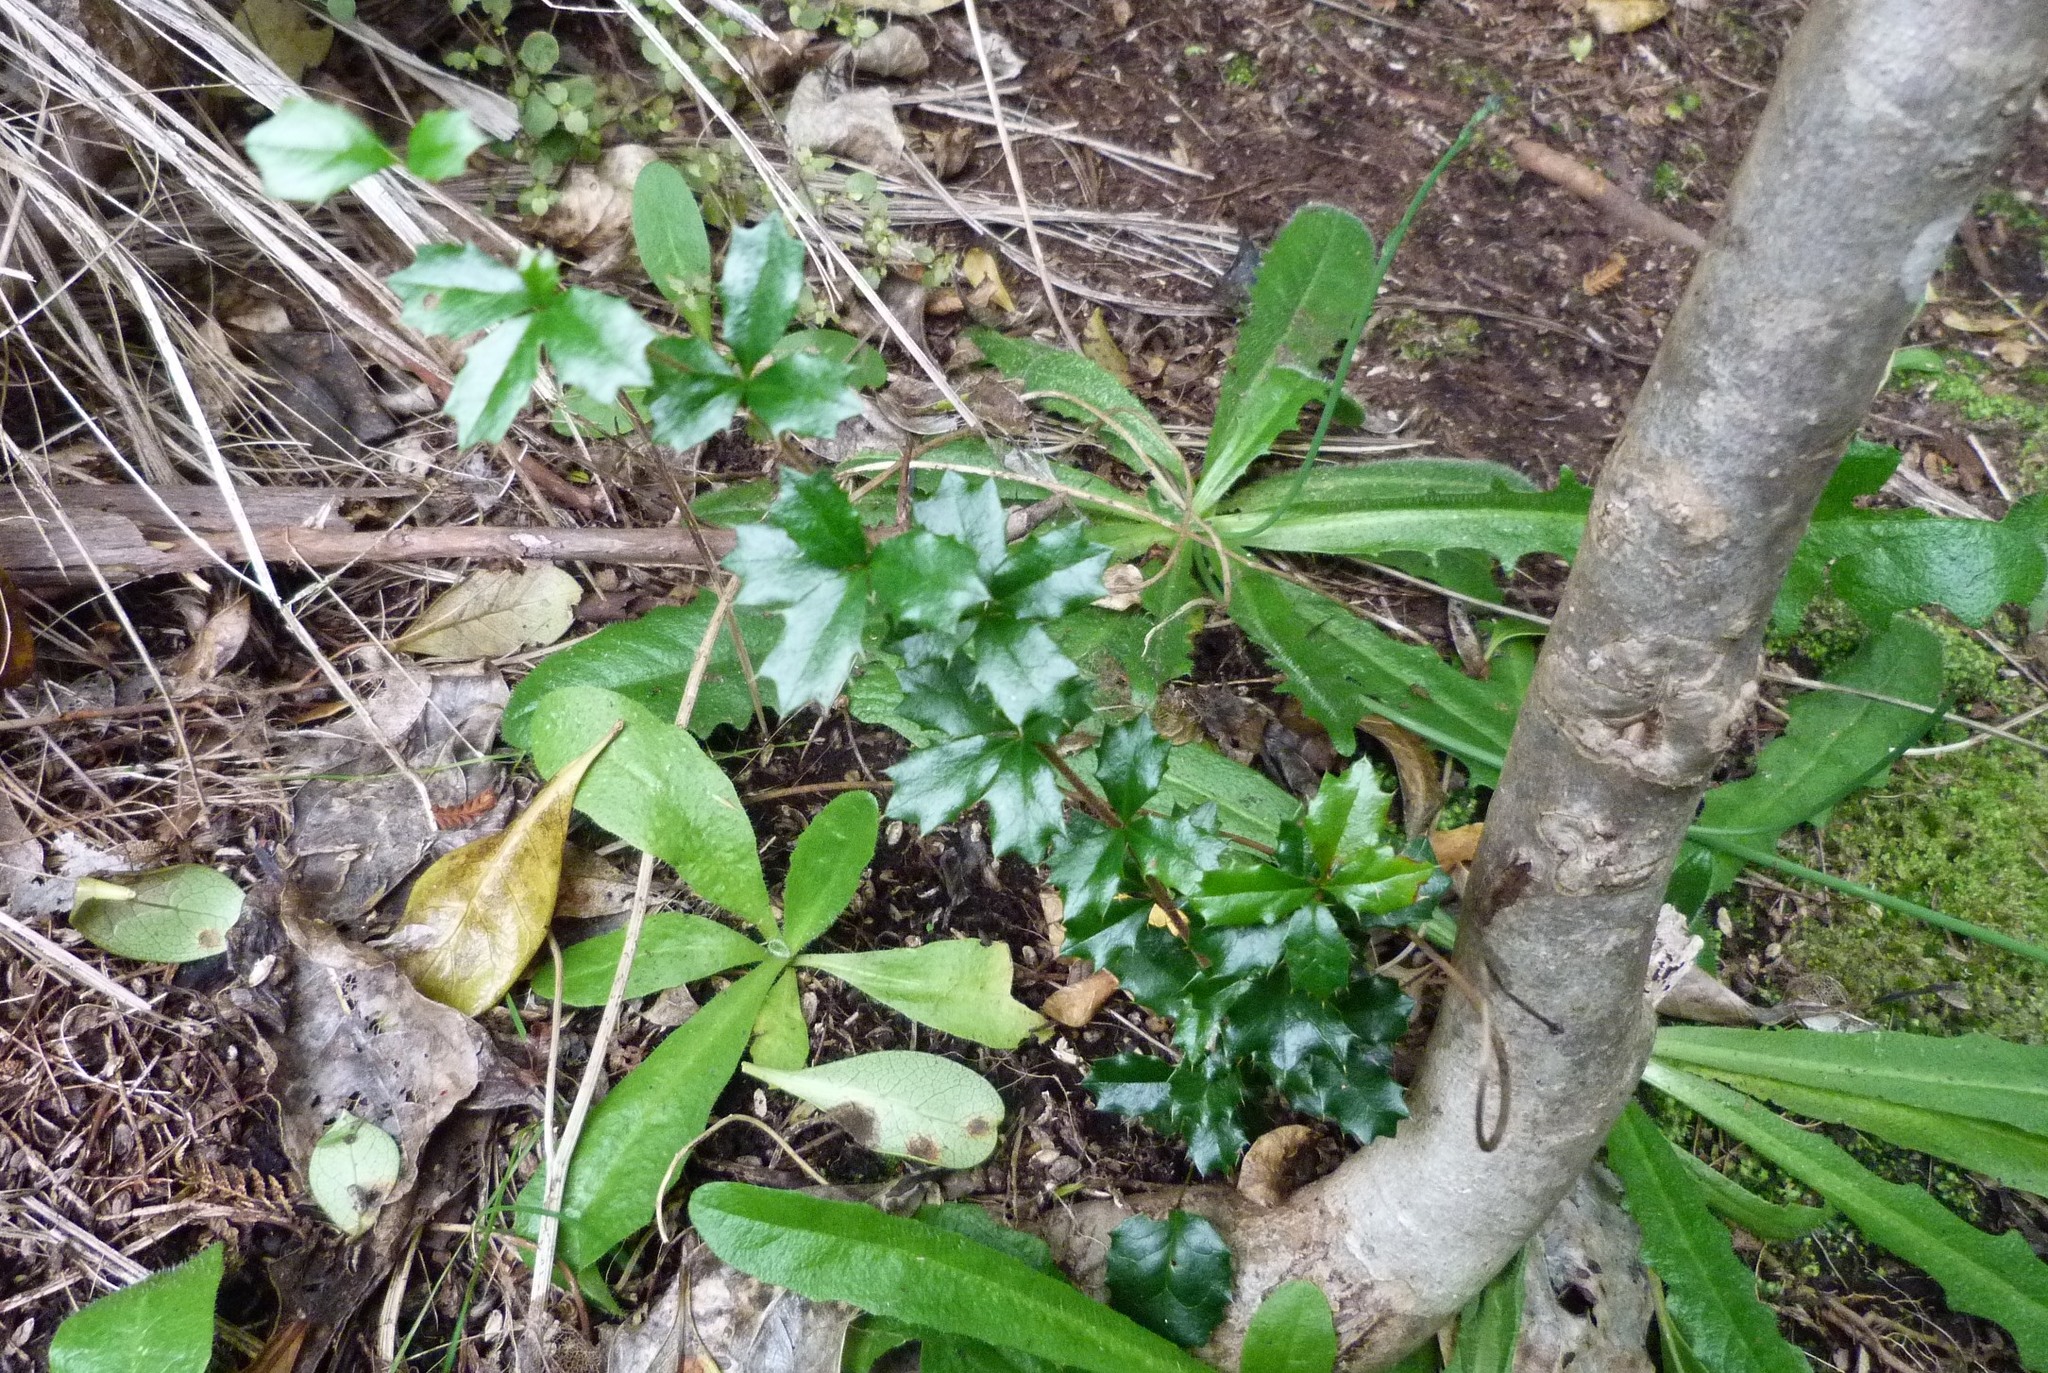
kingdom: Plantae
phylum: Tracheophyta
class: Magnoliopsida
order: Ranunculales
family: Berberidaceae
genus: Berberis
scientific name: Berberis darwinii
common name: Darwin's barberry
